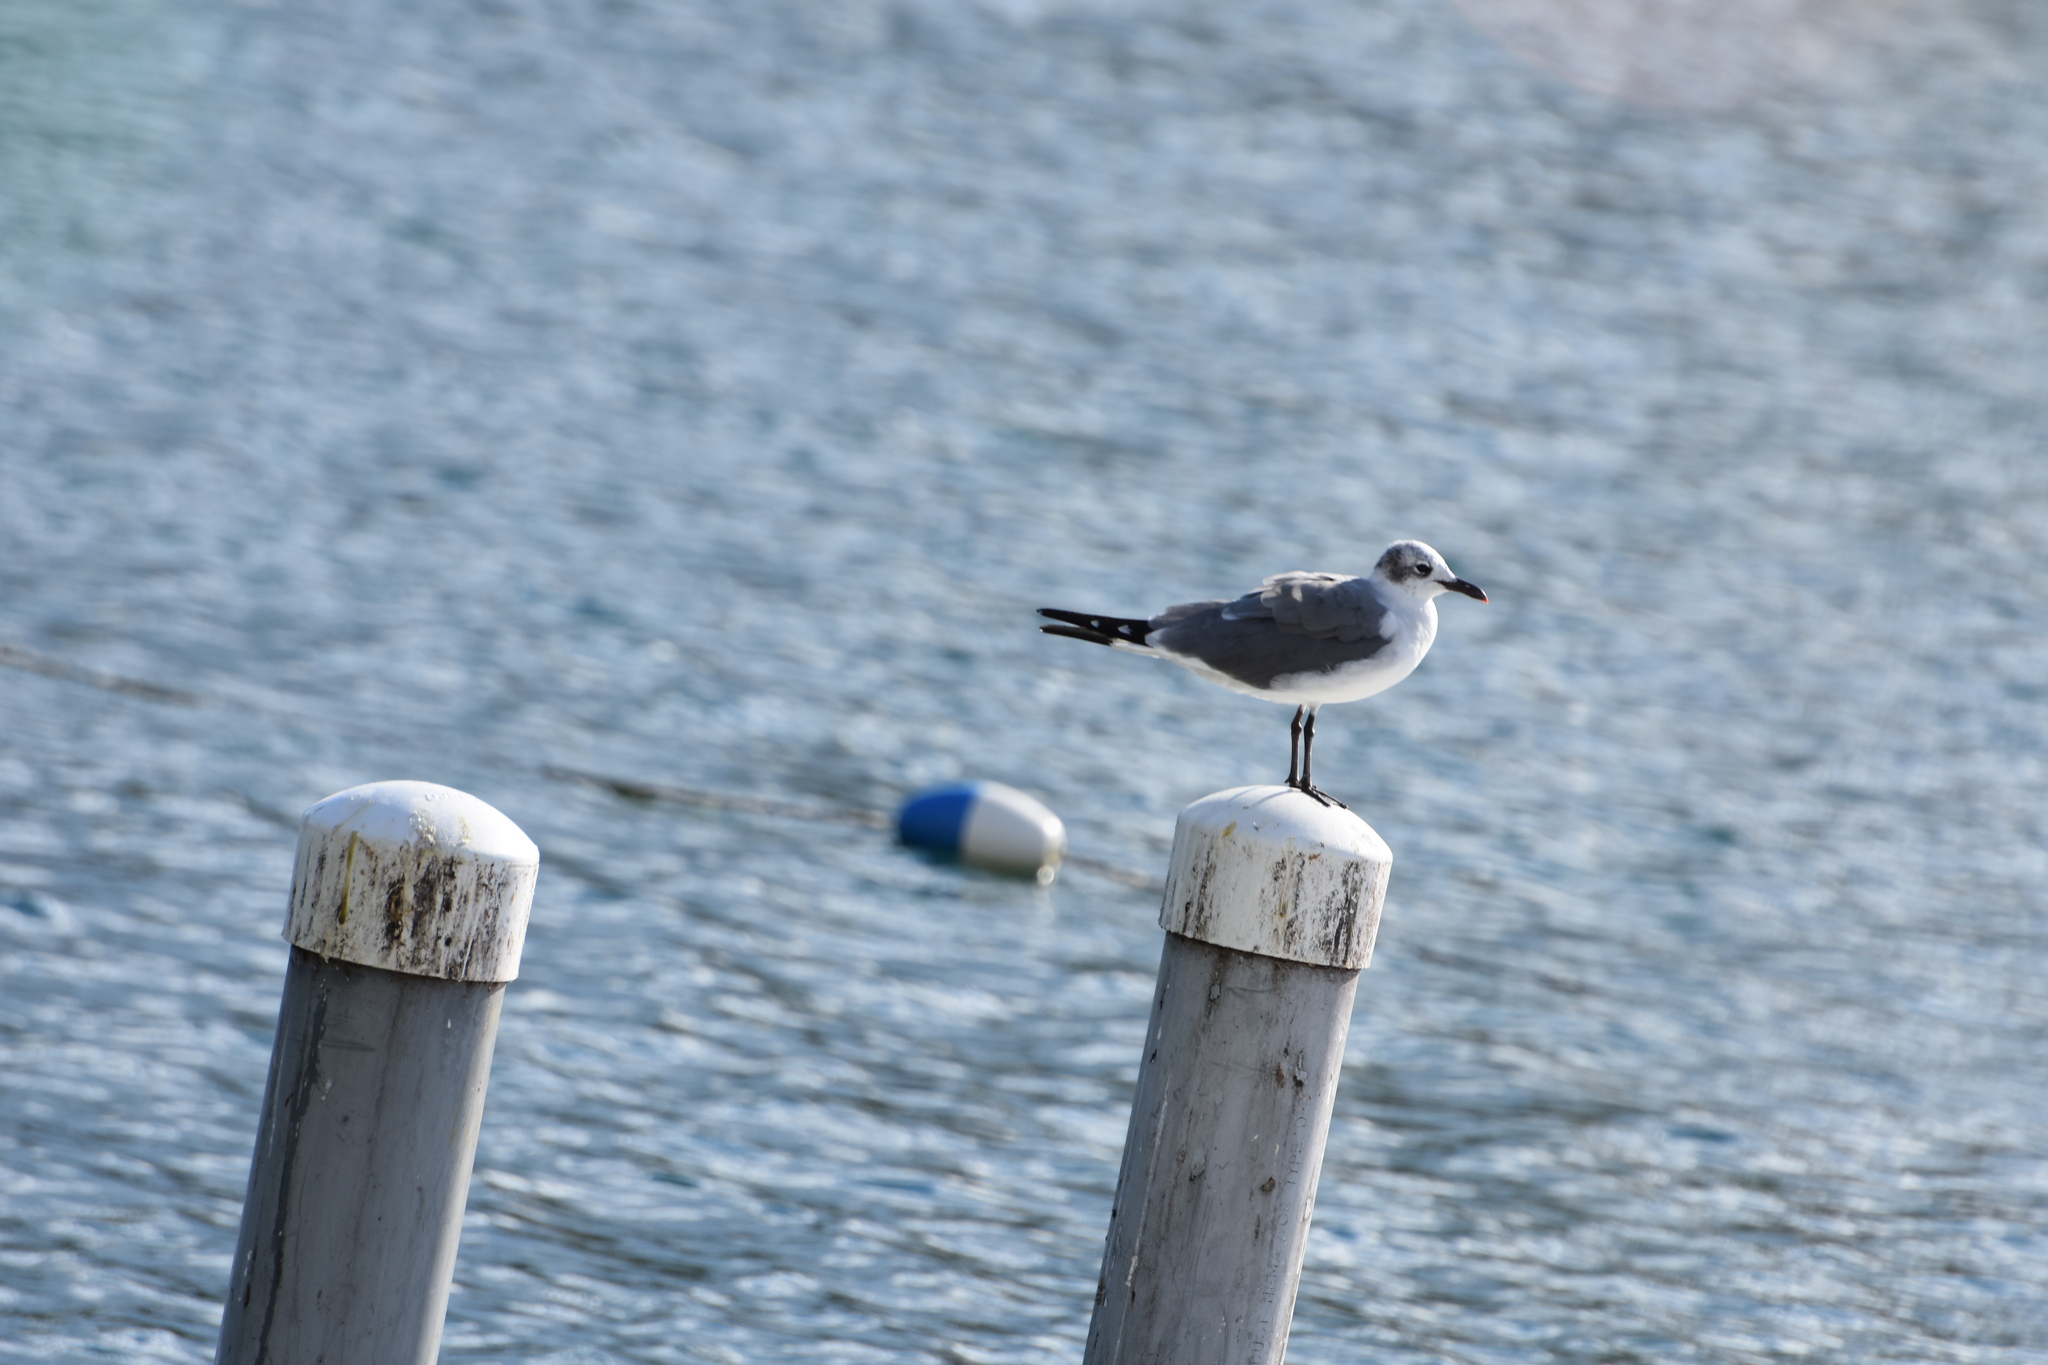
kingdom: Animalia
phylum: Chordata
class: Aves
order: Charadriiformes
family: Laridae
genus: Leucophaeus
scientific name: Leucophaeus atricilla
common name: Laughing gull
